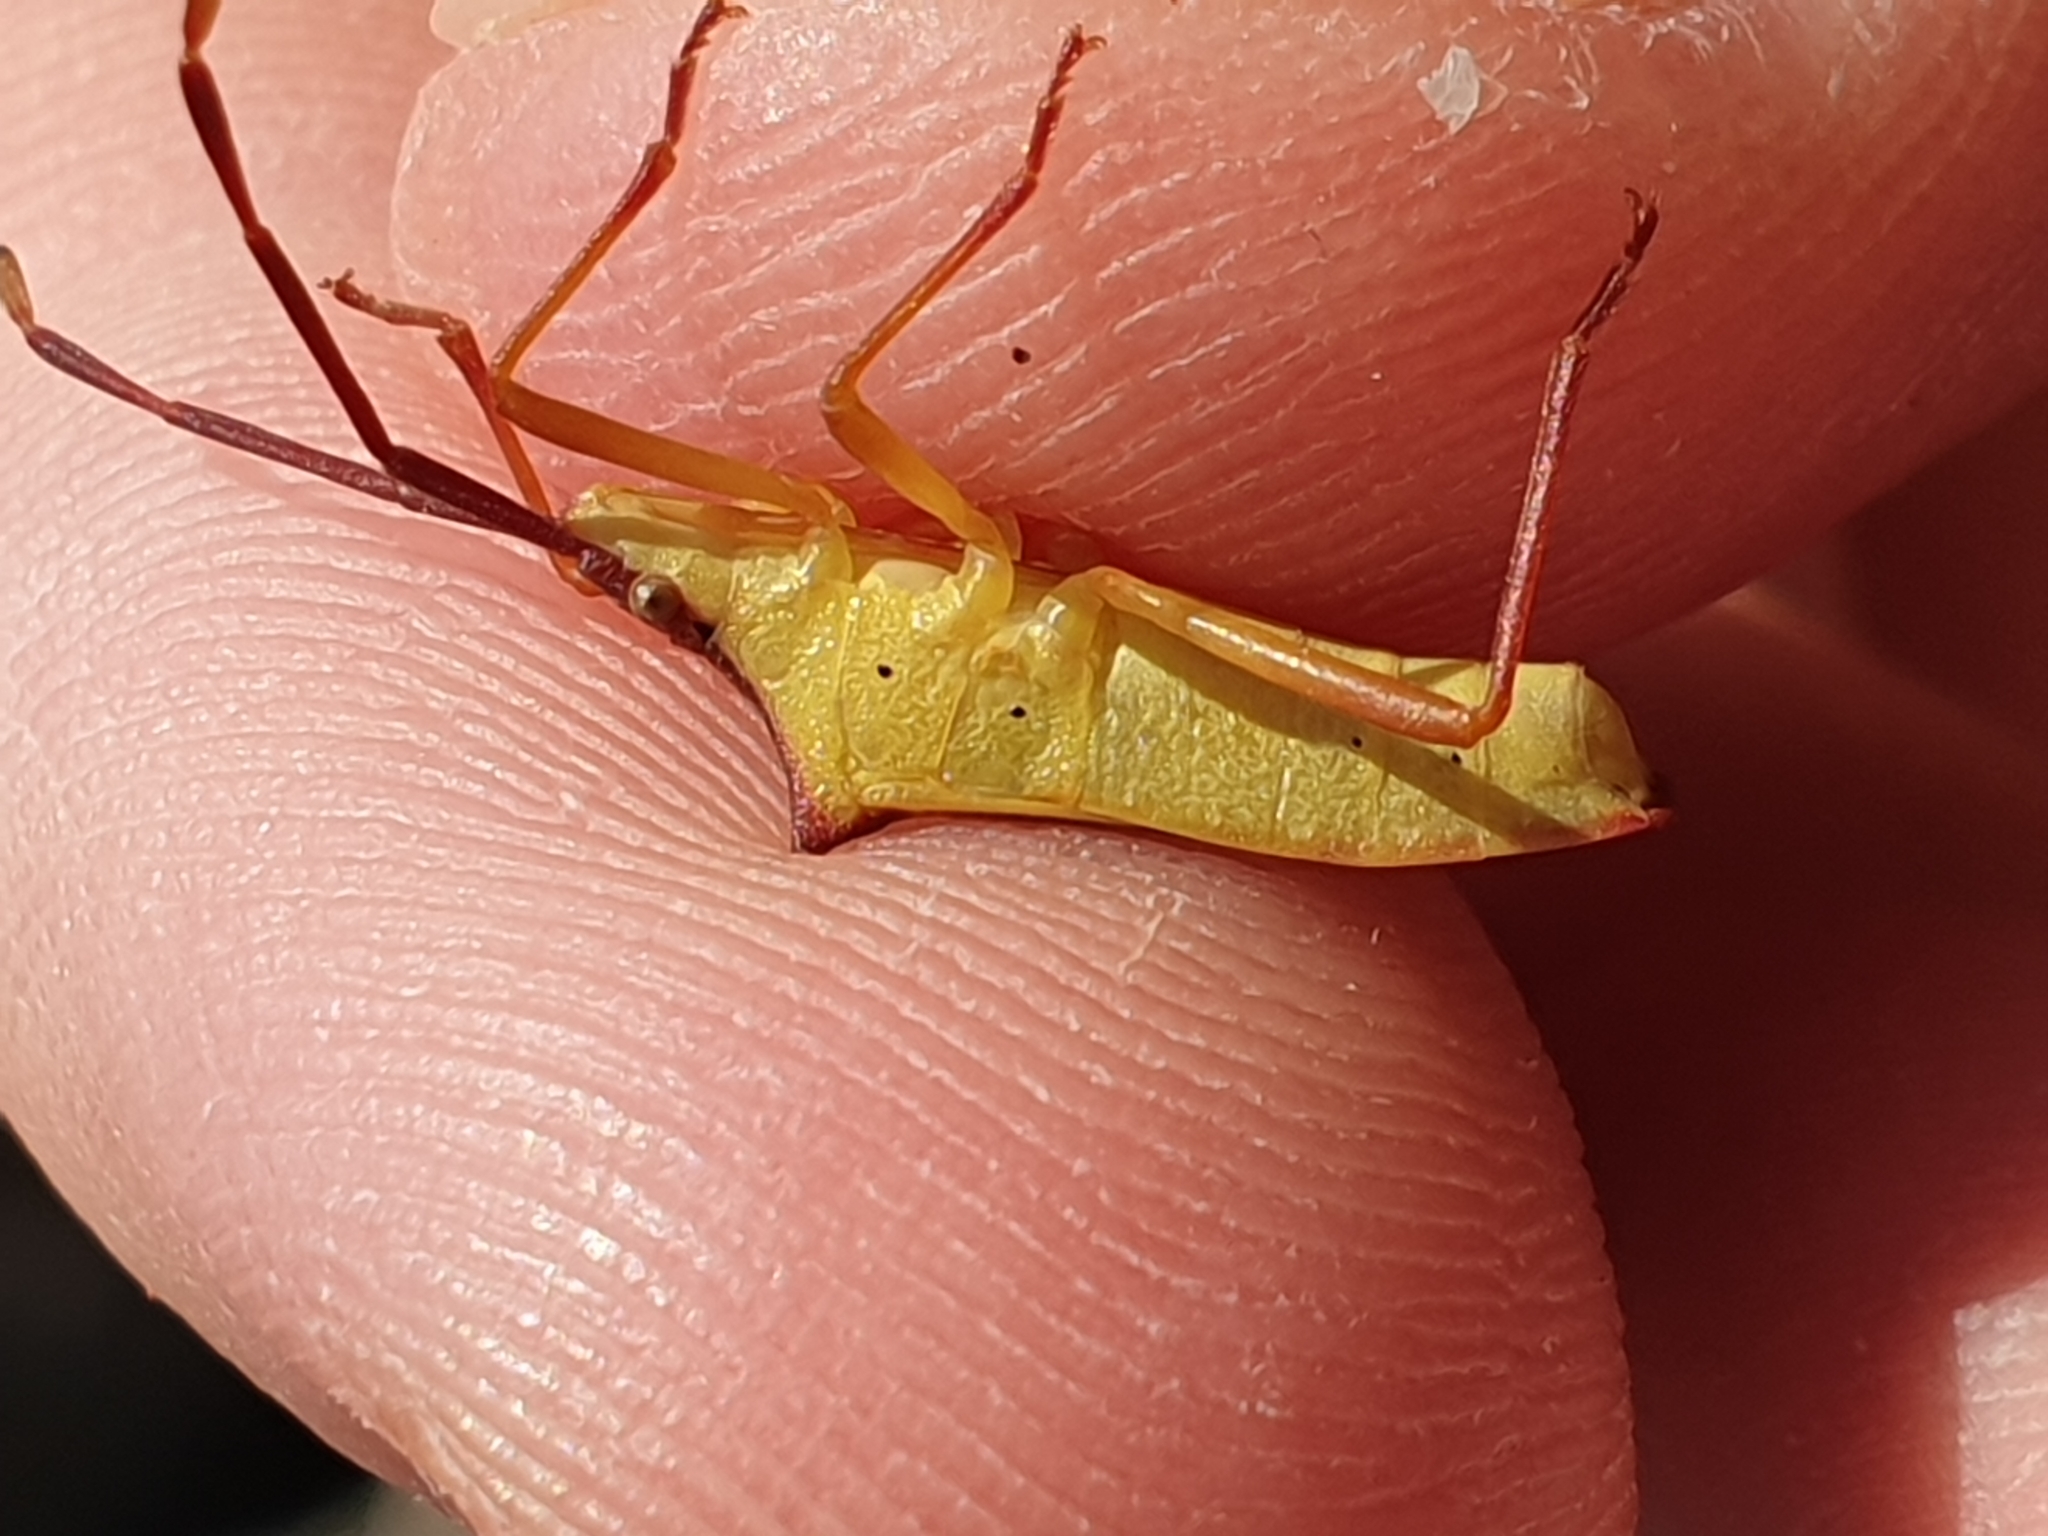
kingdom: Animalia
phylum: Arthropoda
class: Insecta
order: Hemiptera
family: Coreidae
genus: Gonocerus
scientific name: Gonocerus insidiator
